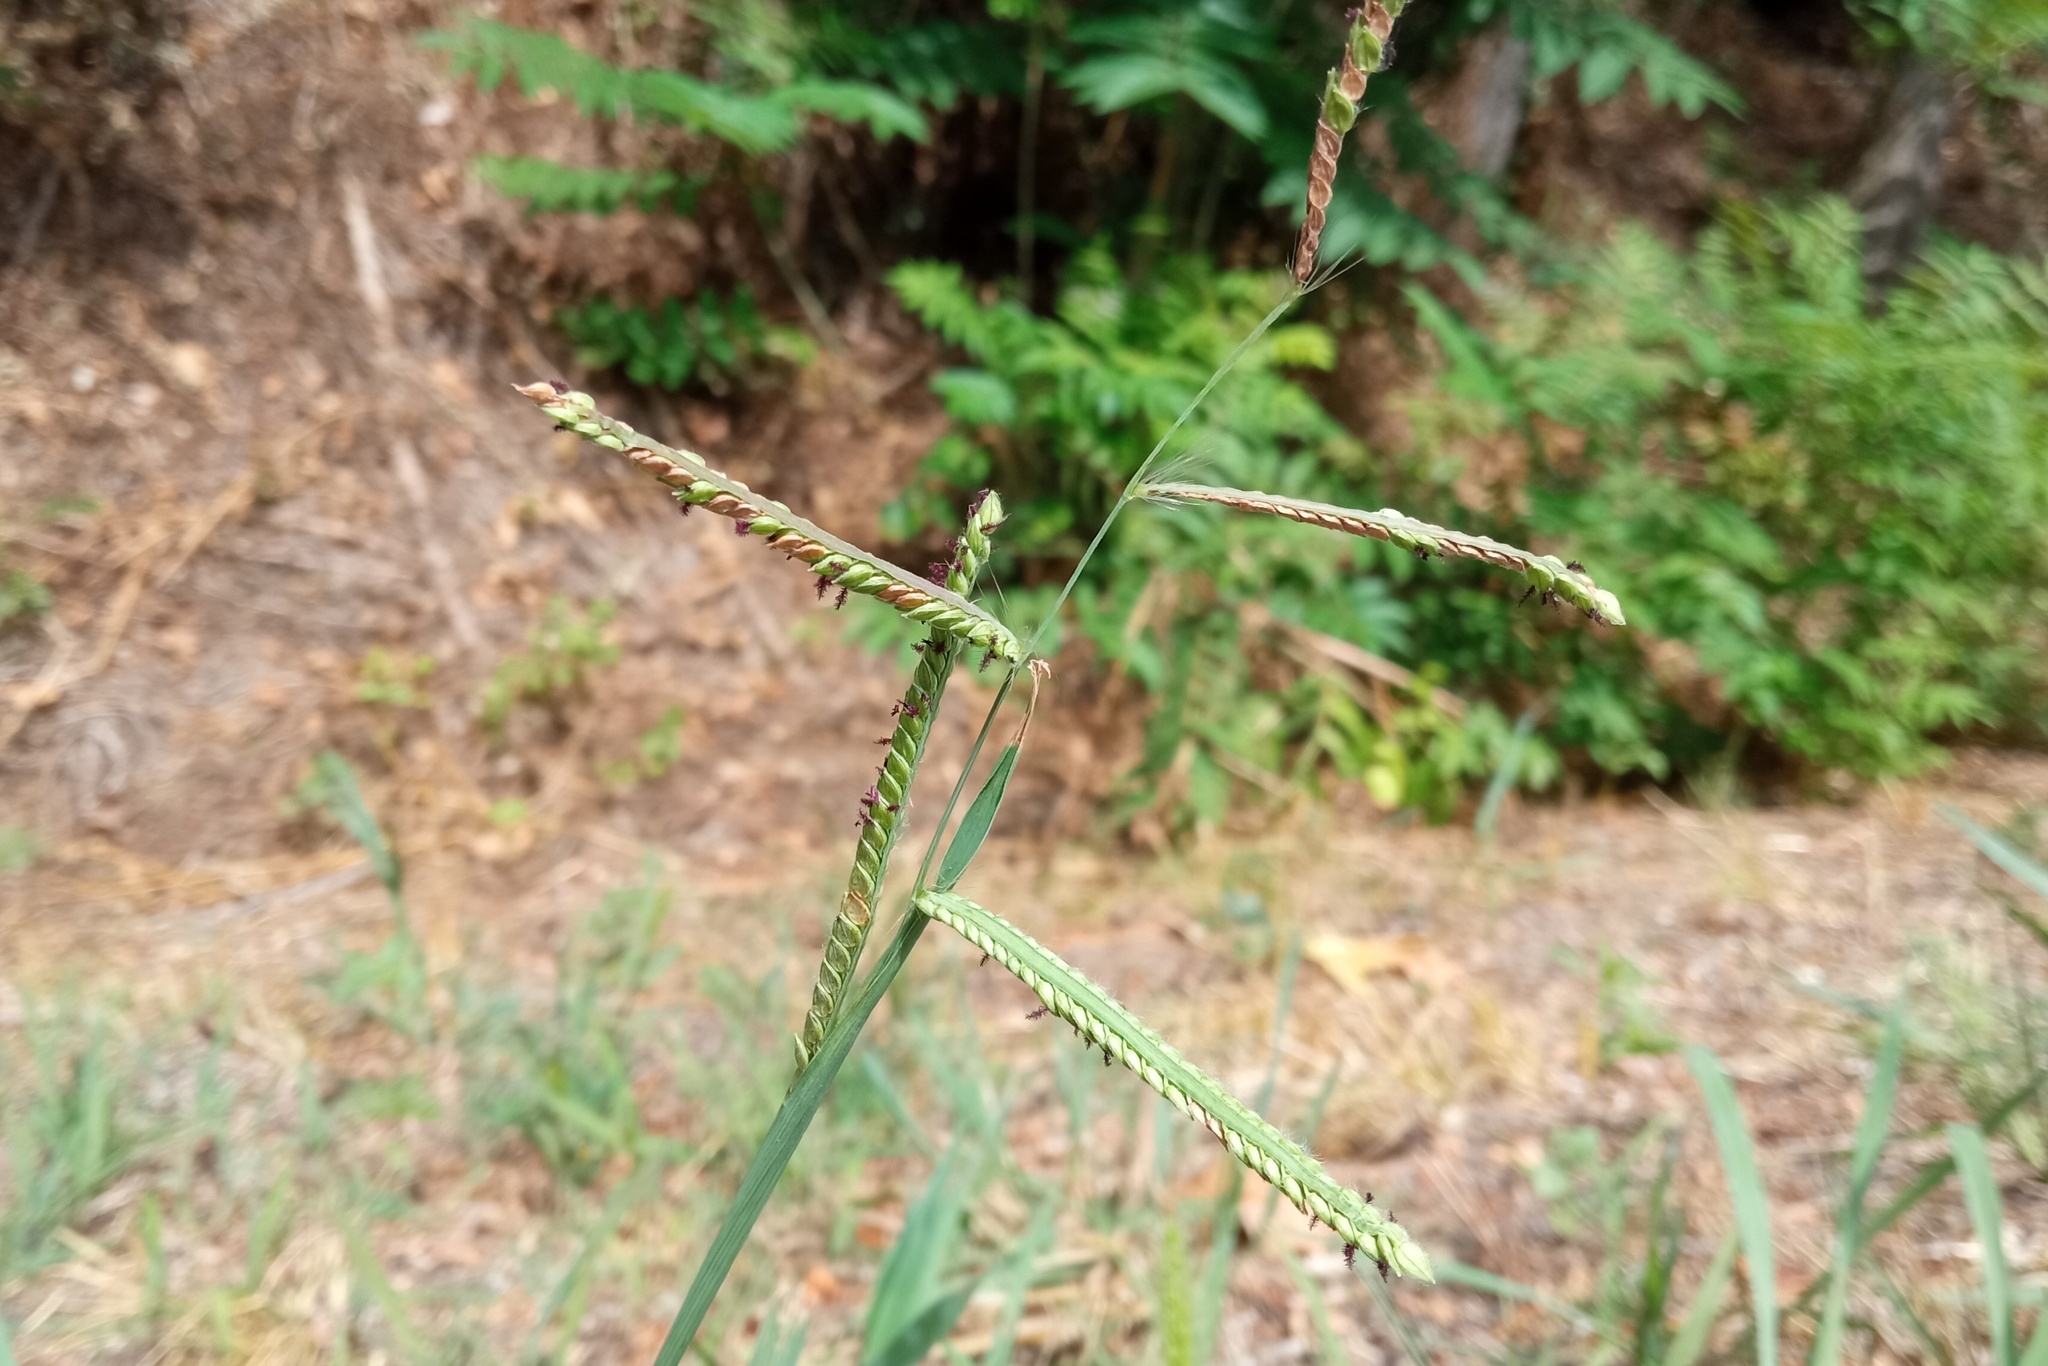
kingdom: Plantae
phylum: Tracheophyta
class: Liliopsida
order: Poales
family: Poaceae
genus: Paspalum
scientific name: Paspalum dilatatum
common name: Dallisgrass
